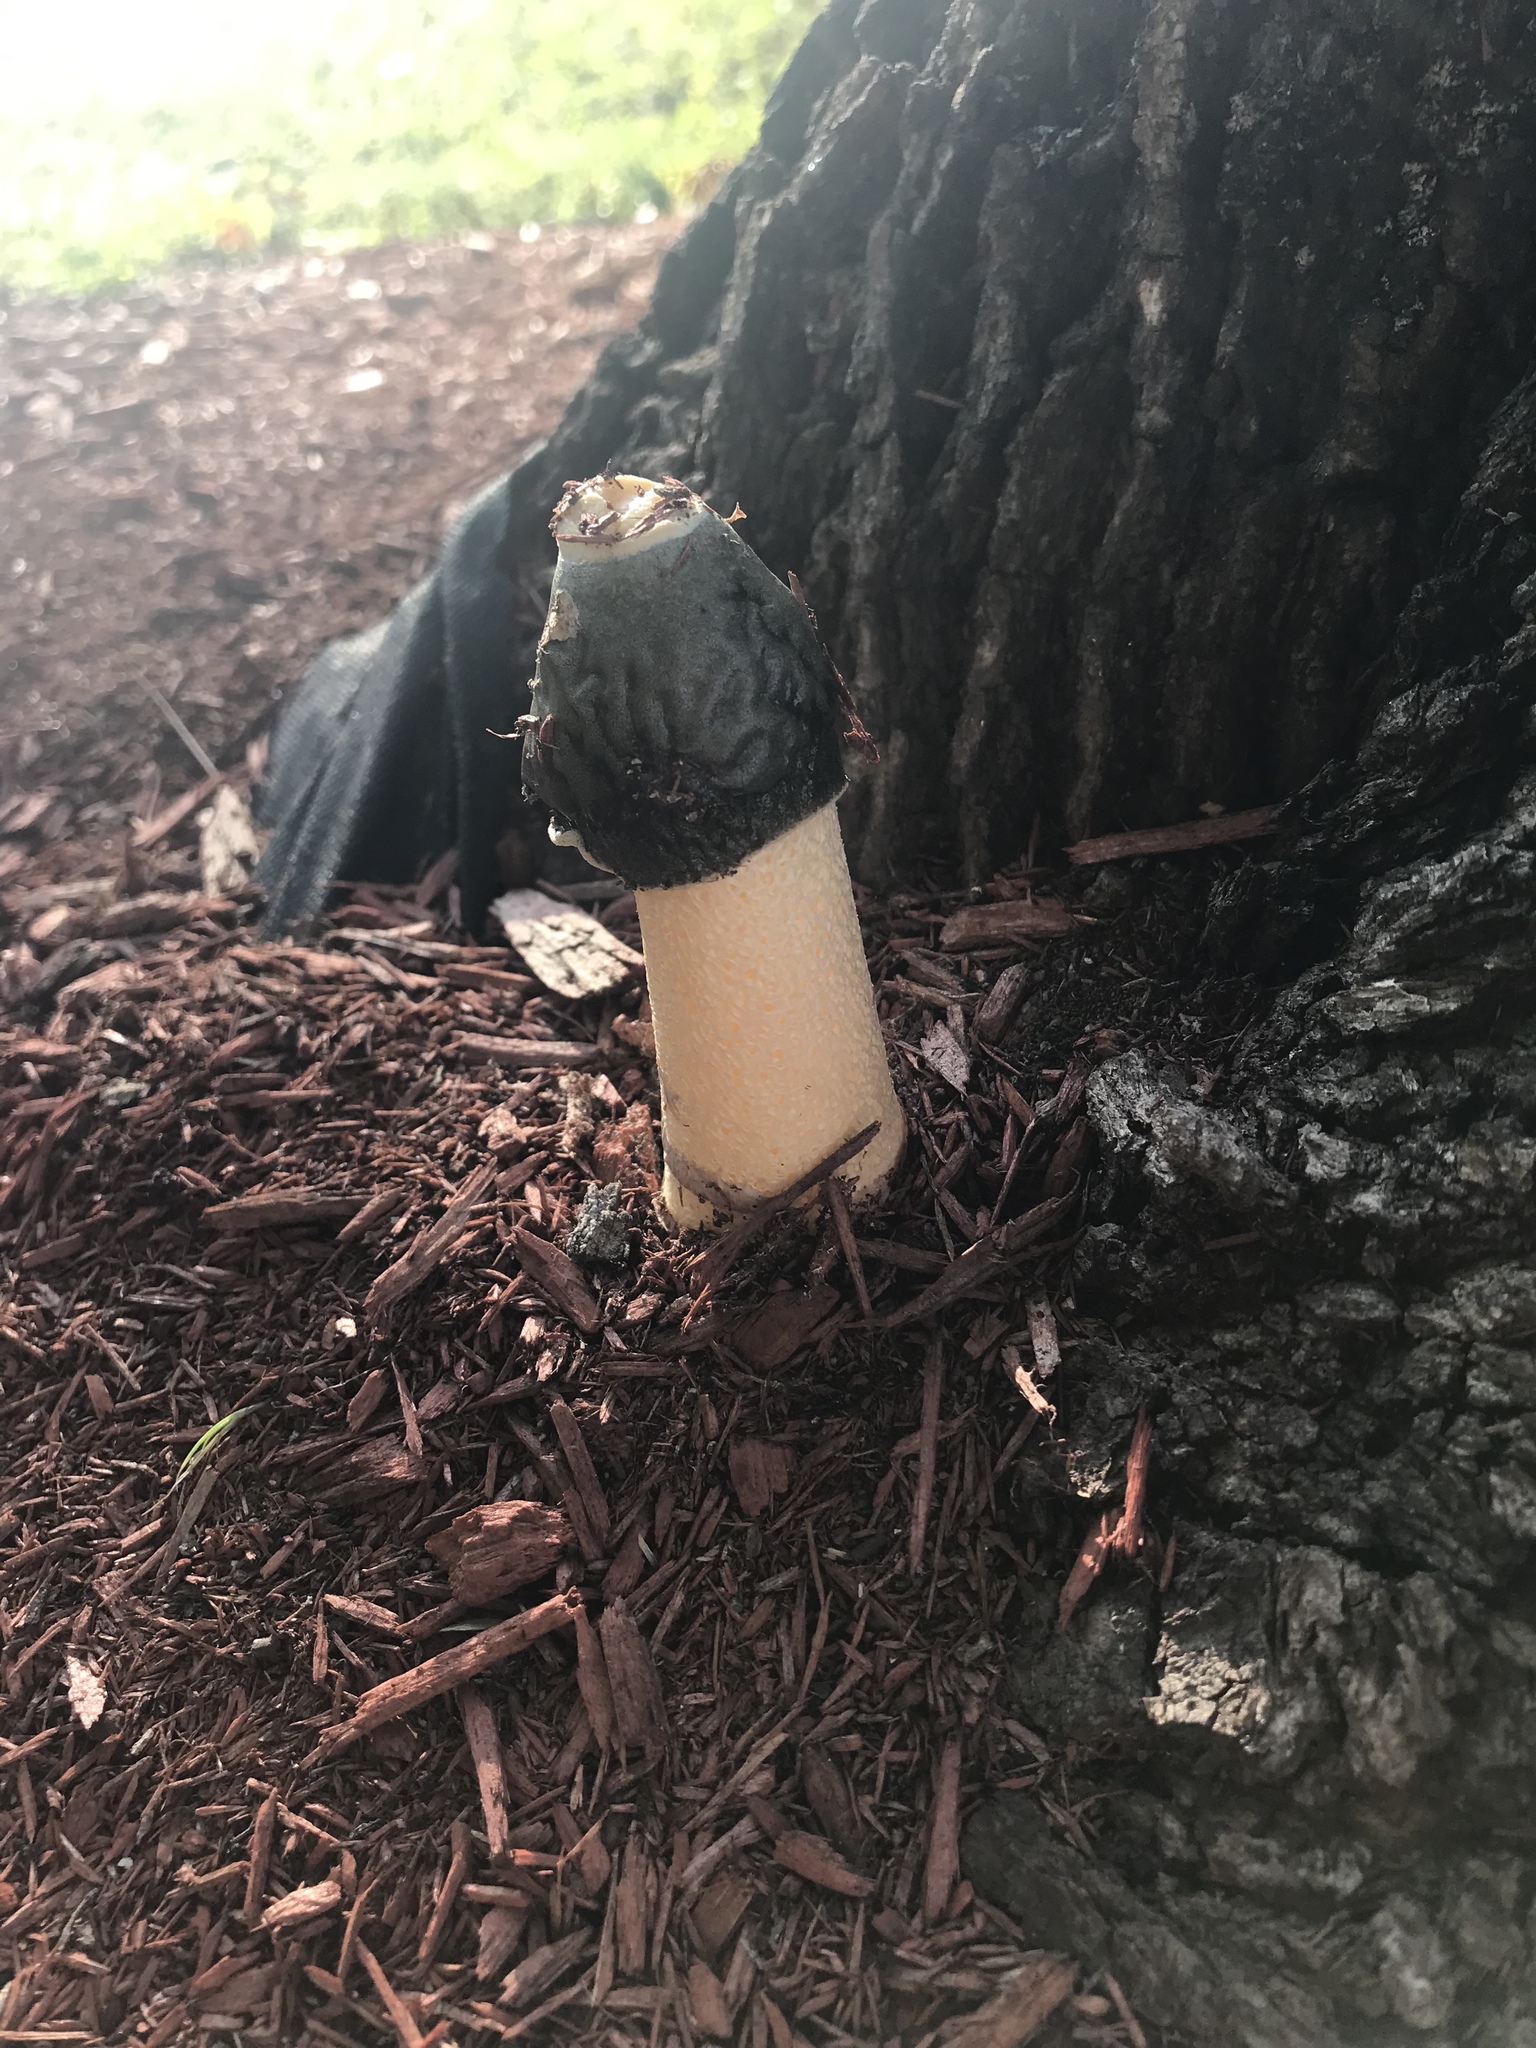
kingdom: Fungi
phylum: Basidiomycota
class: Agaricomycetes
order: Phallales
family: Phallaceae
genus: Phallus
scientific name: Phallus ravenelii
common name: Ravenel's stinkhorn
